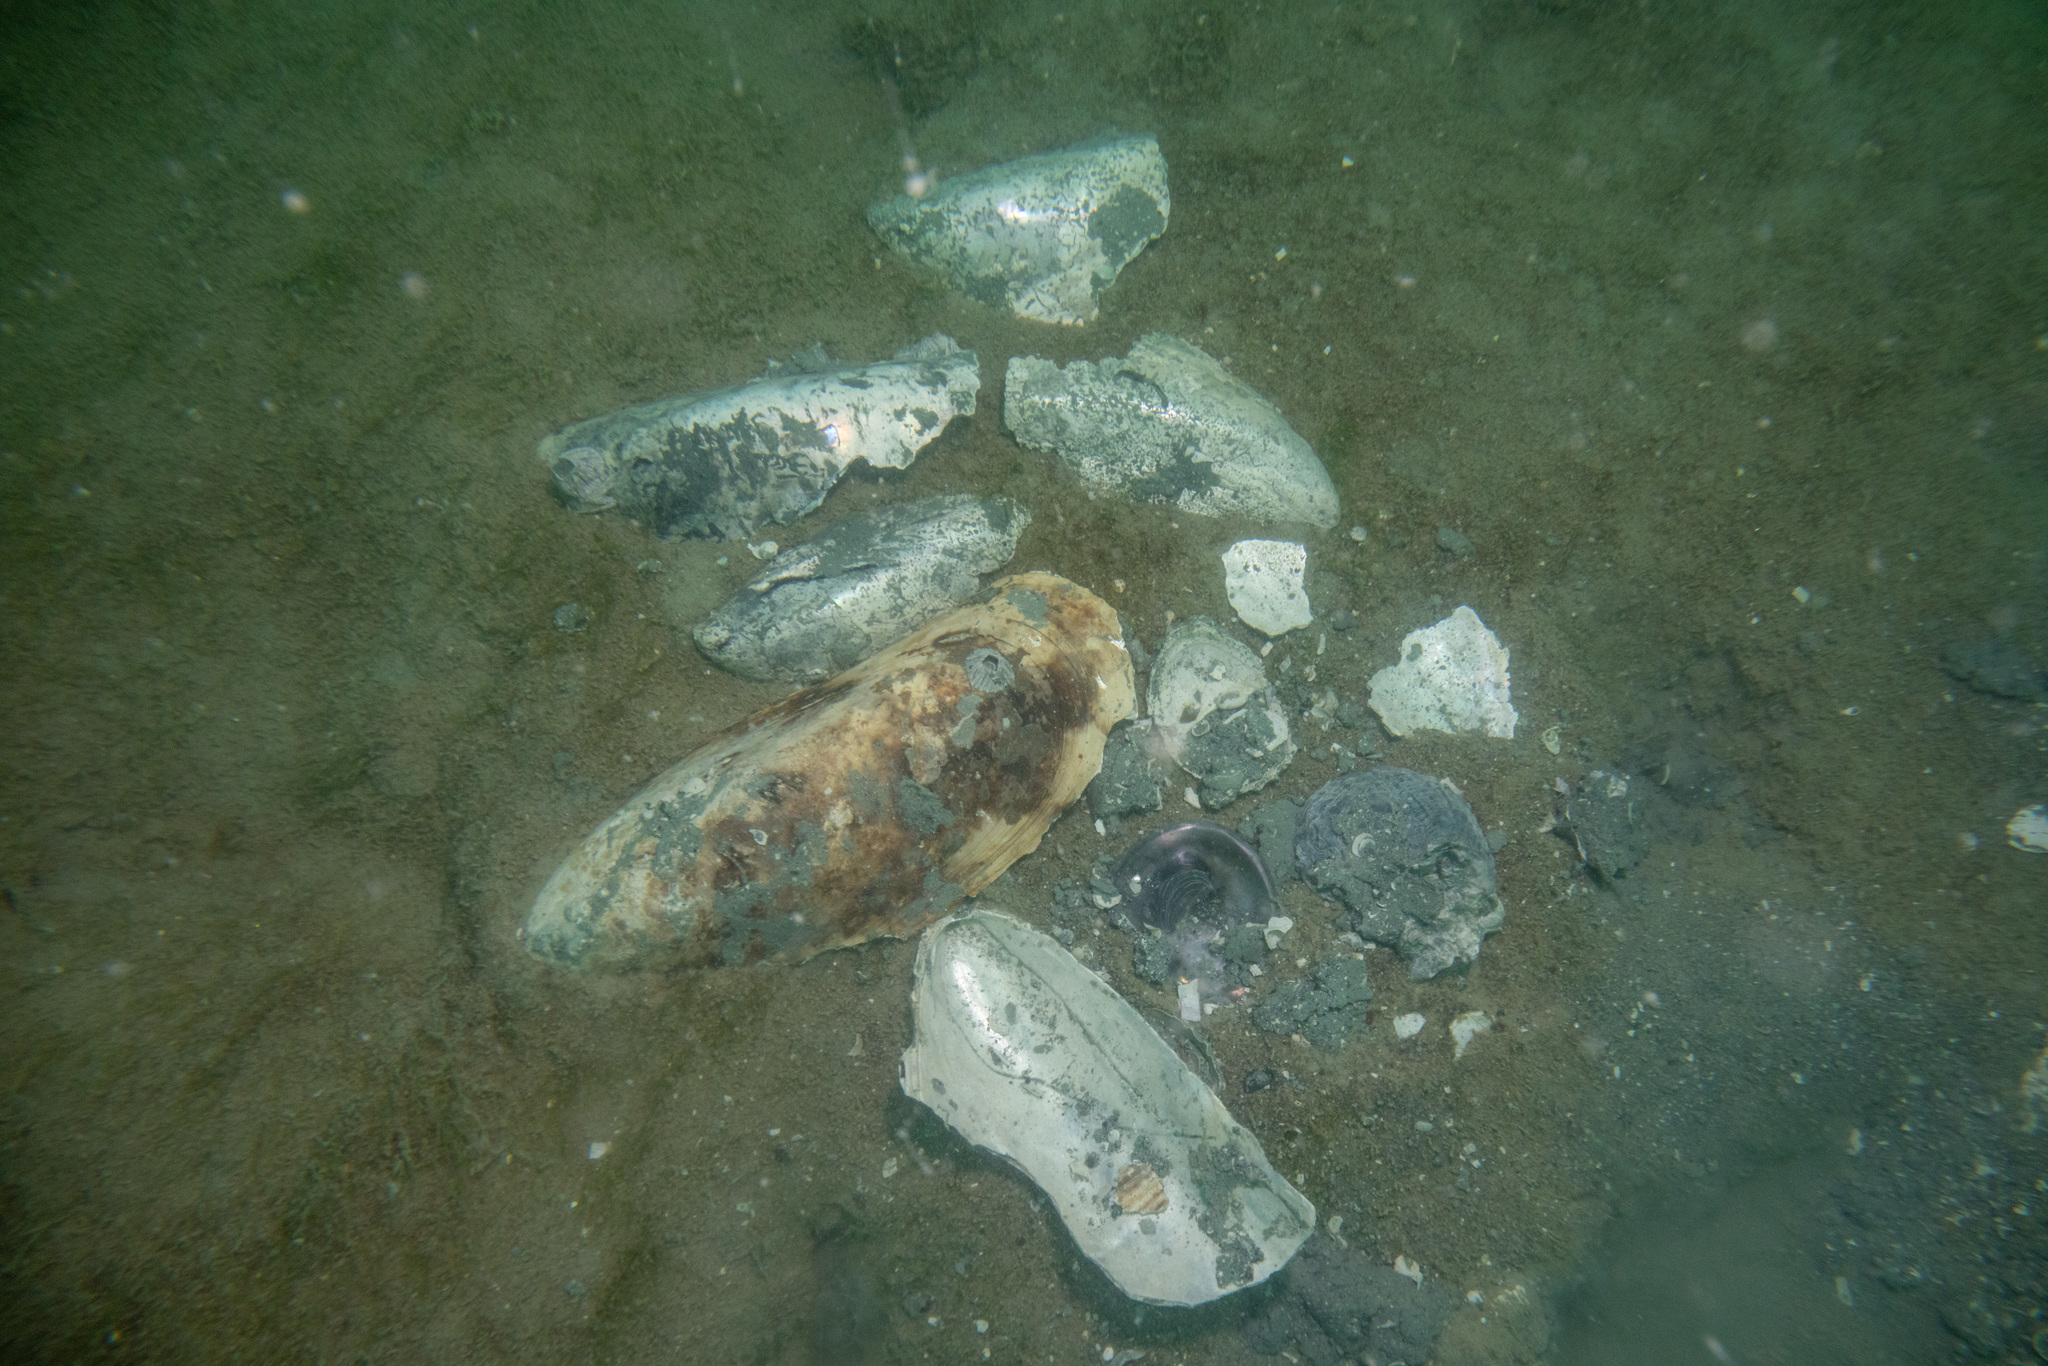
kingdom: Animalia
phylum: Mollusca
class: Bivalvia
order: Mytilida
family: Mytilidae
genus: Perna
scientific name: Perna canaliculus
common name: New zealand greenshelltm
